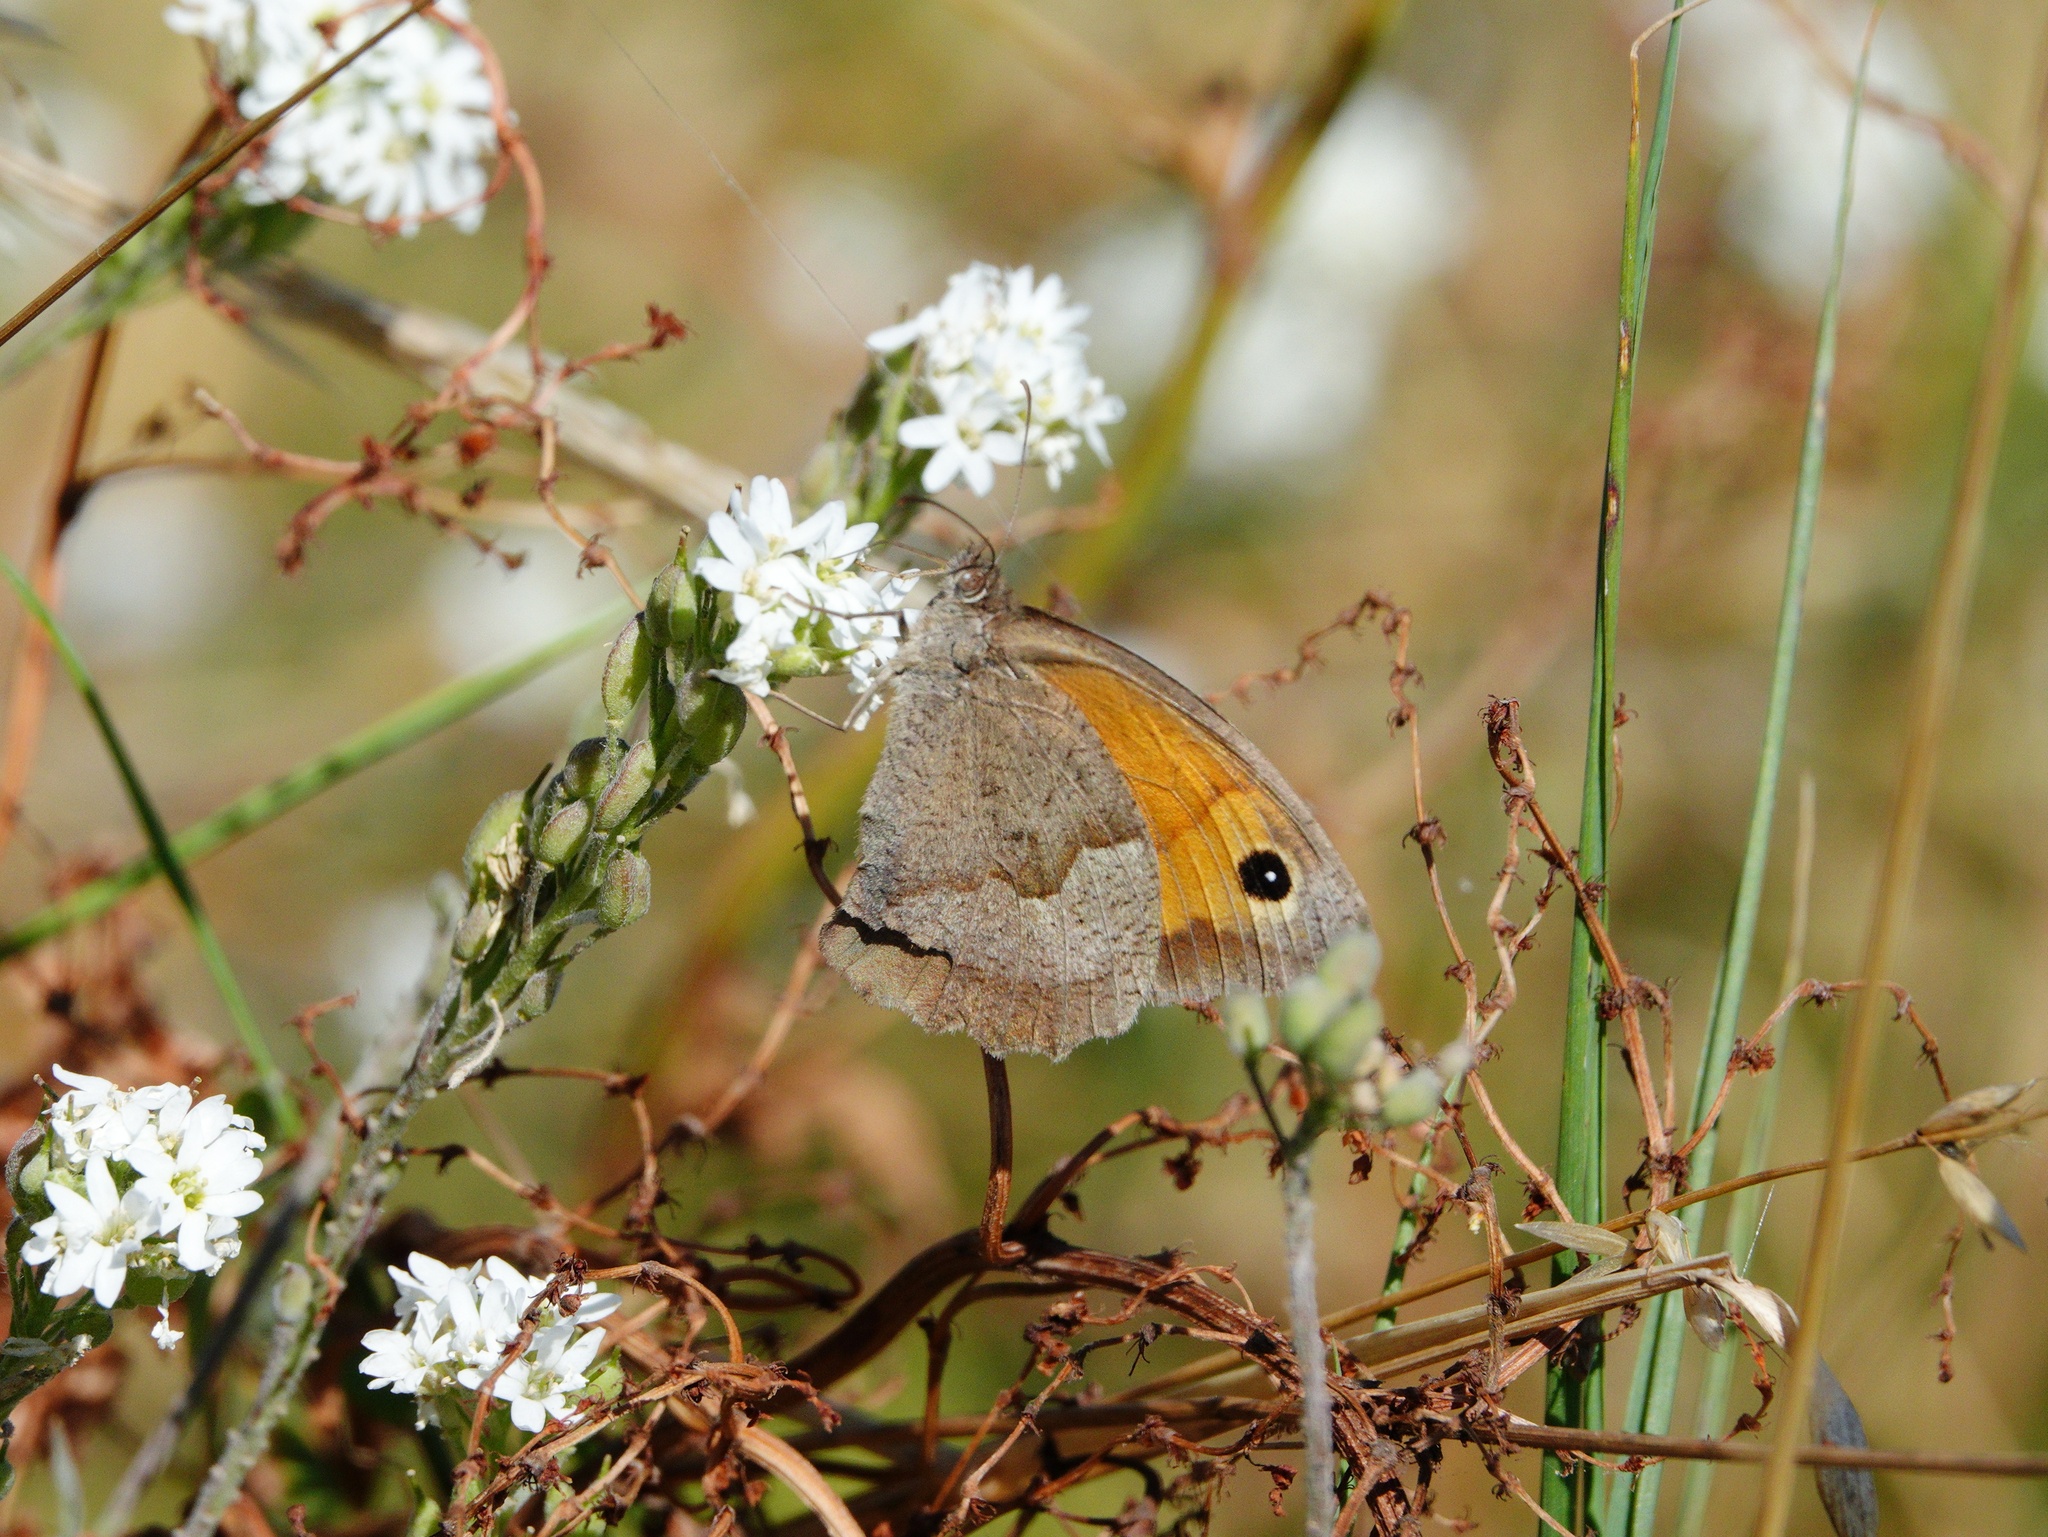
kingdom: Animalia
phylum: Arthropoda
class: Insecta
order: Lepidoptera
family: Nymphalidae
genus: Maniola
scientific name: Maniola jurtina
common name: Meadow brown
